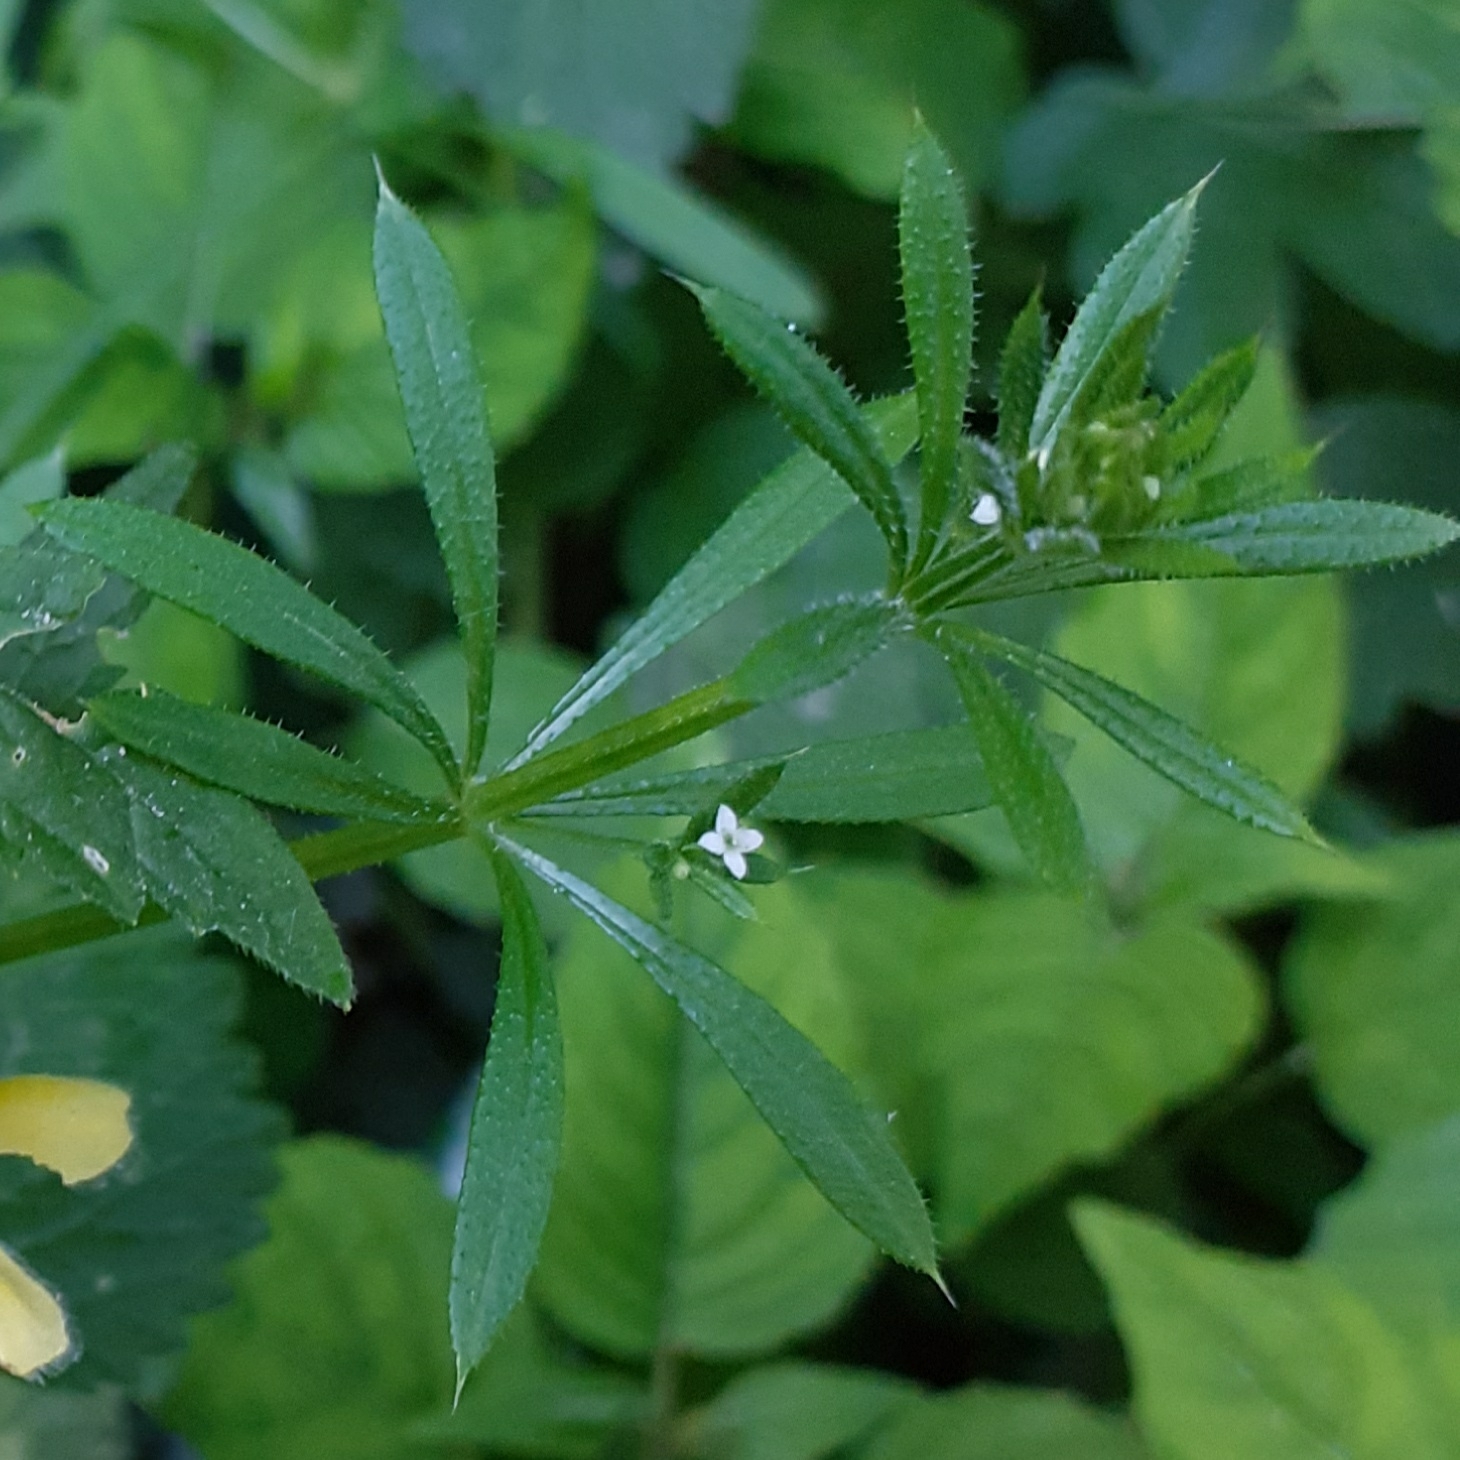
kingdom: Plantae
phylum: Tracheophyta
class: Magnoliopsida
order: Gentianales
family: Rubiaceae
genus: Galium
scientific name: Galium aparine
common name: Cleavers
